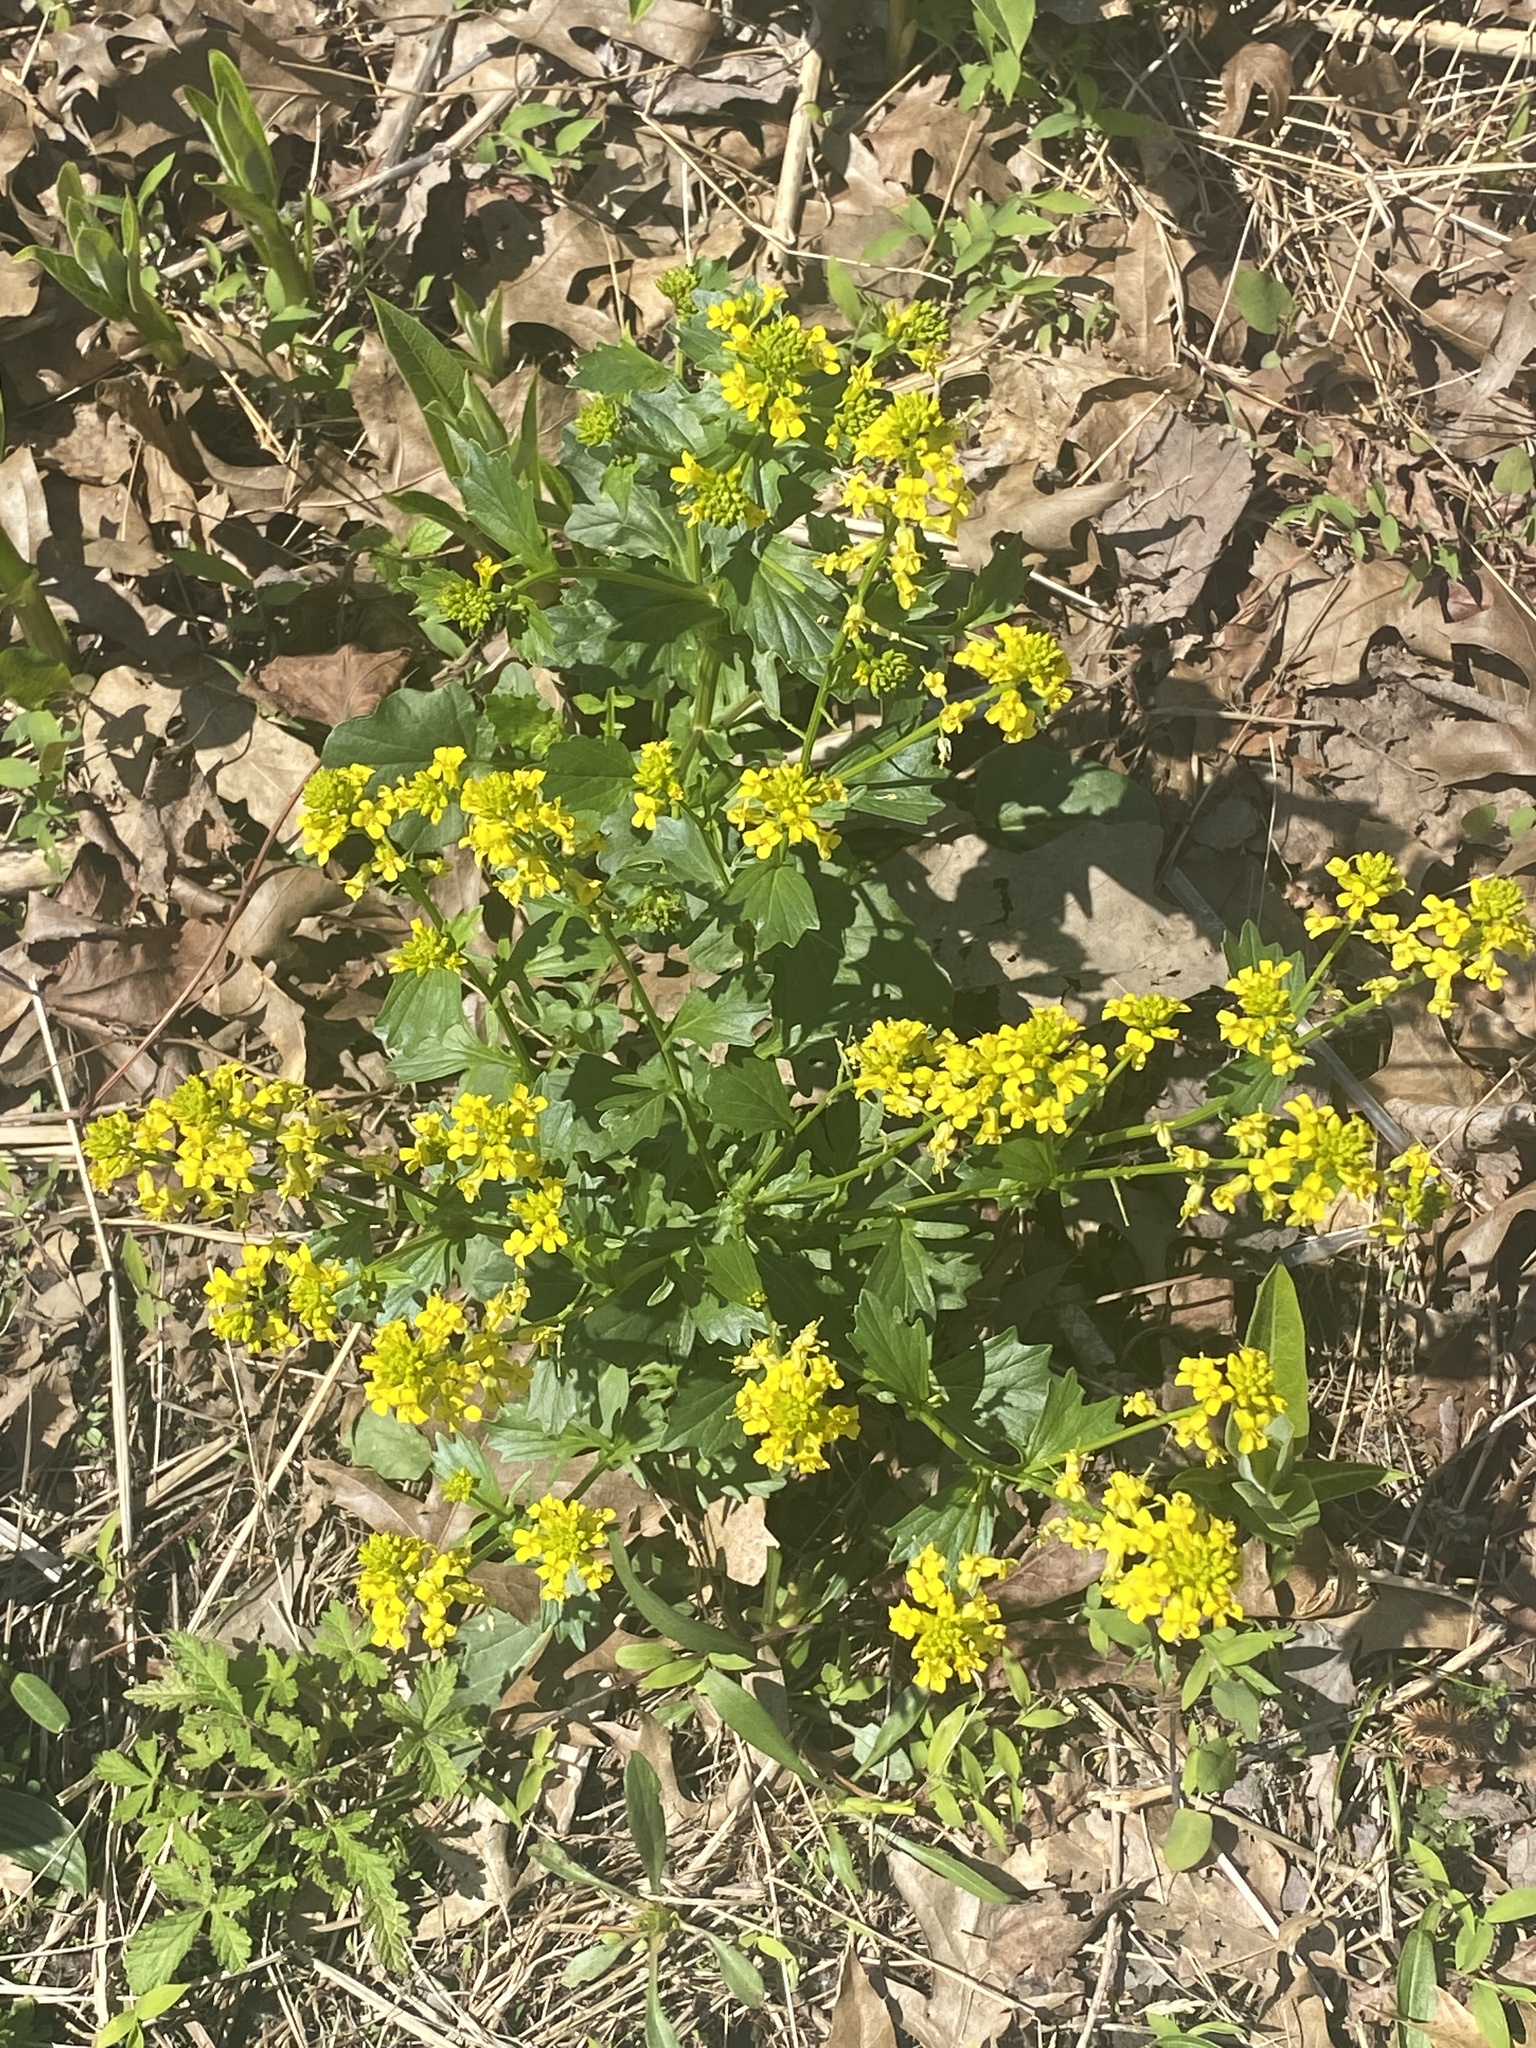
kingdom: Plantae
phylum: Tracheophyta
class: Magnoliopsida
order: Brassicales
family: Brassicaceae
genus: Barbarea
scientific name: Barbarea vulgaris
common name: Cressy-greens
